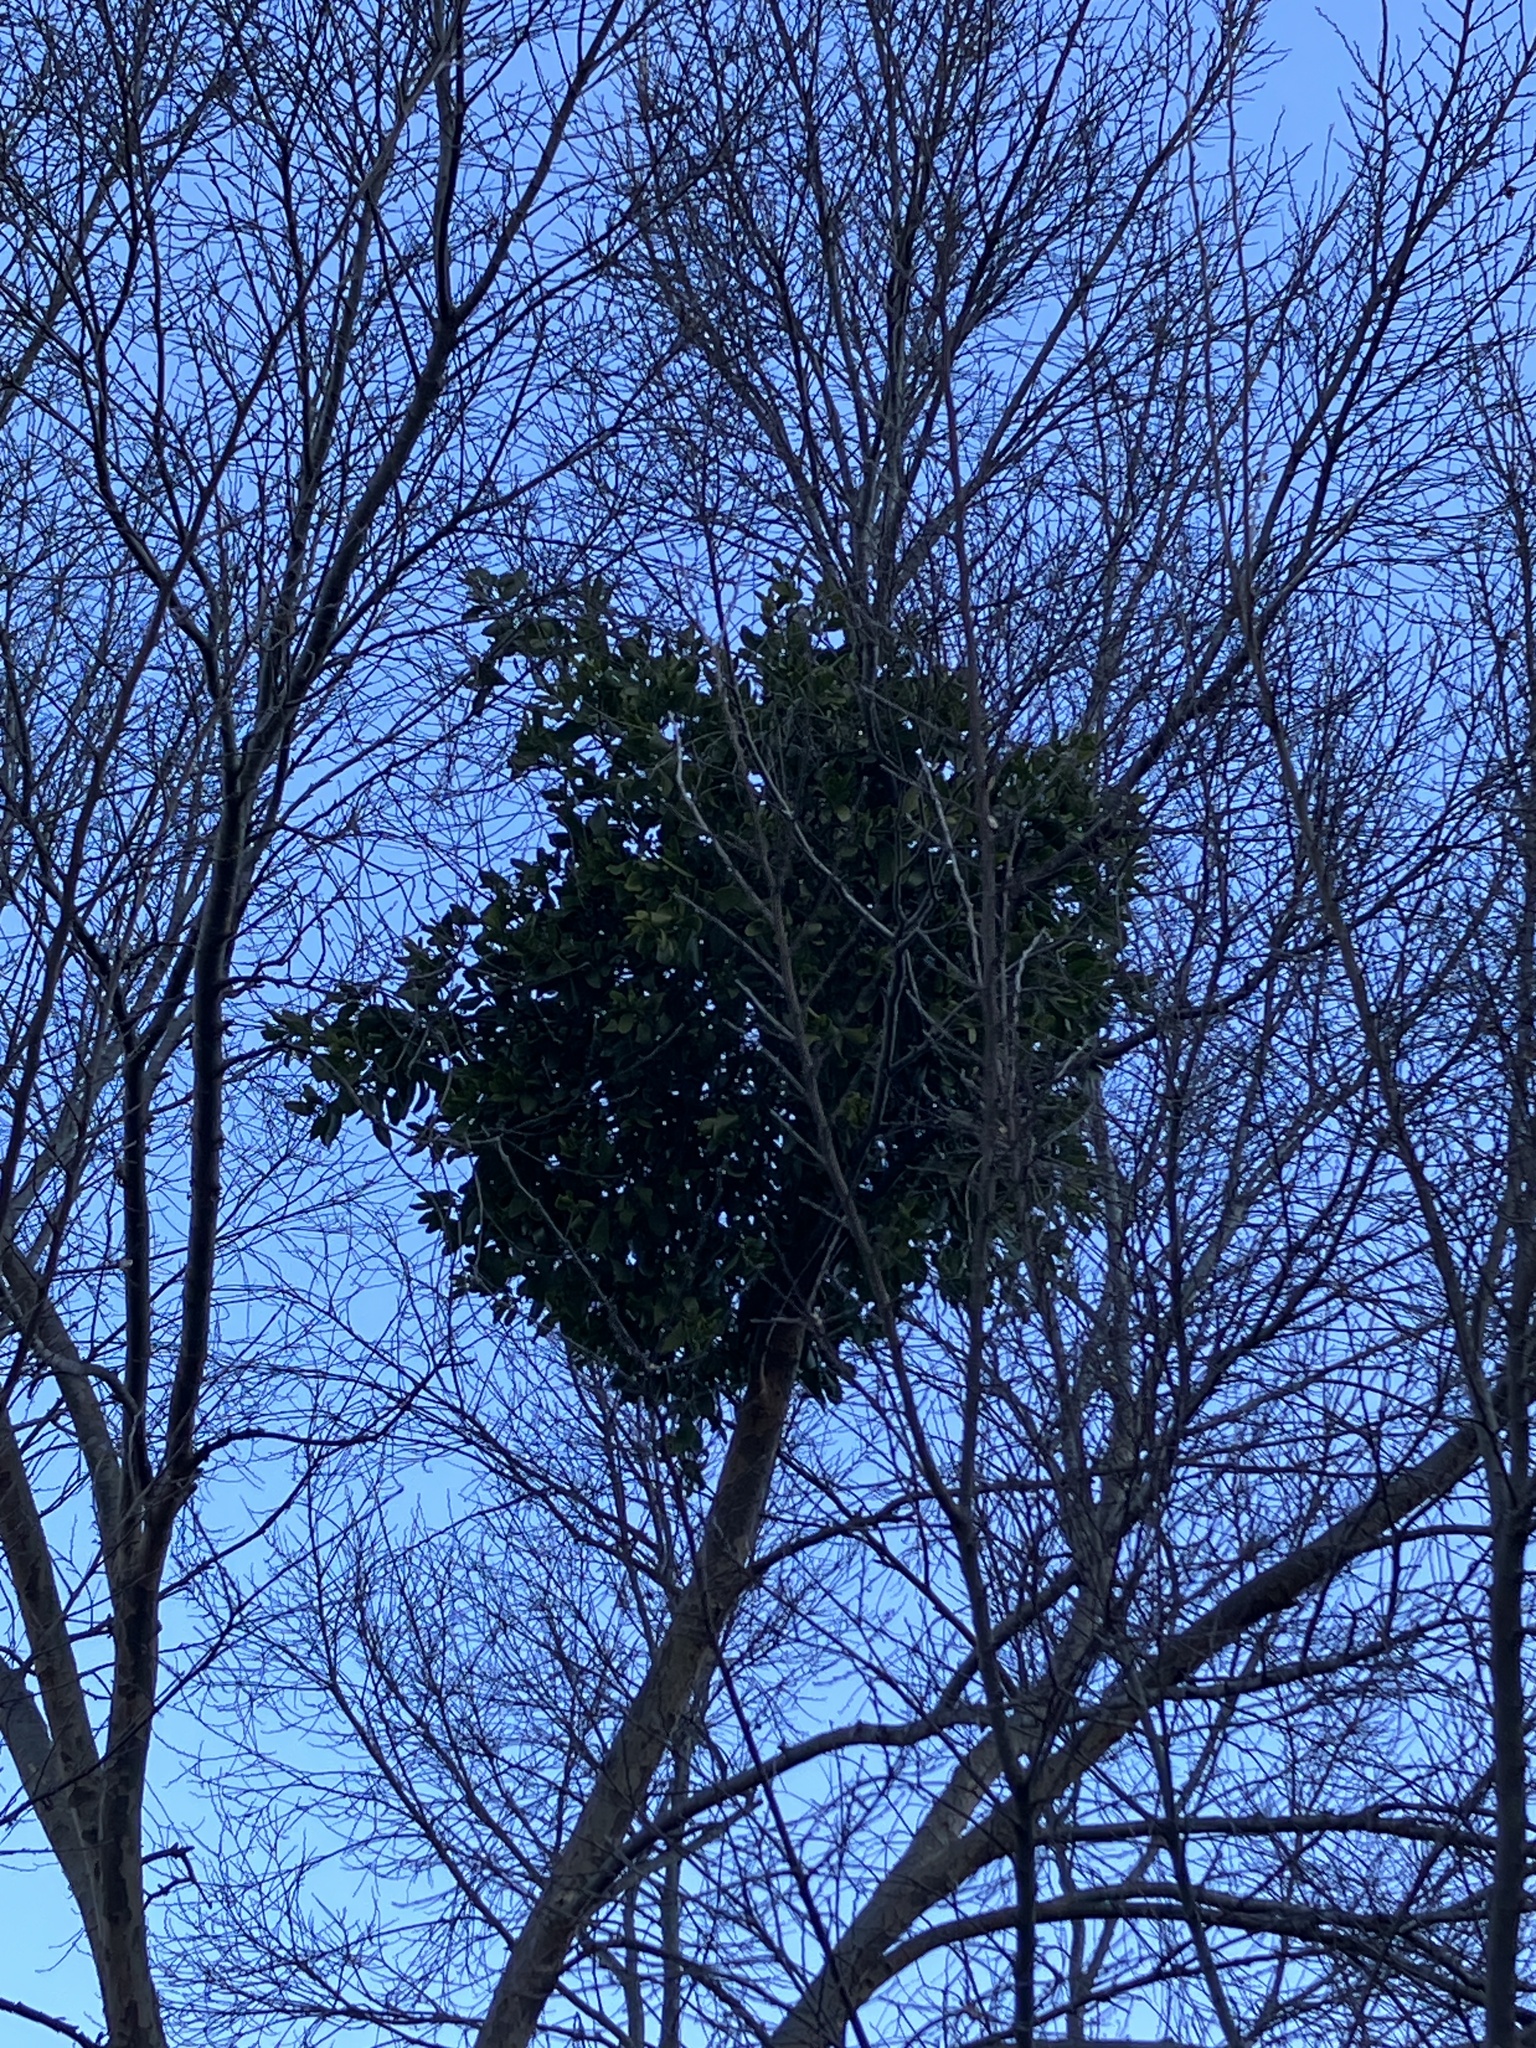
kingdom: Plantae
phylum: Tracheophyta
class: Magnoliopsida
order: Santalales
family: Viscaceae
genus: Phoradendron
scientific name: Phoradendron leucarpum
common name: Pacific mistletoe
